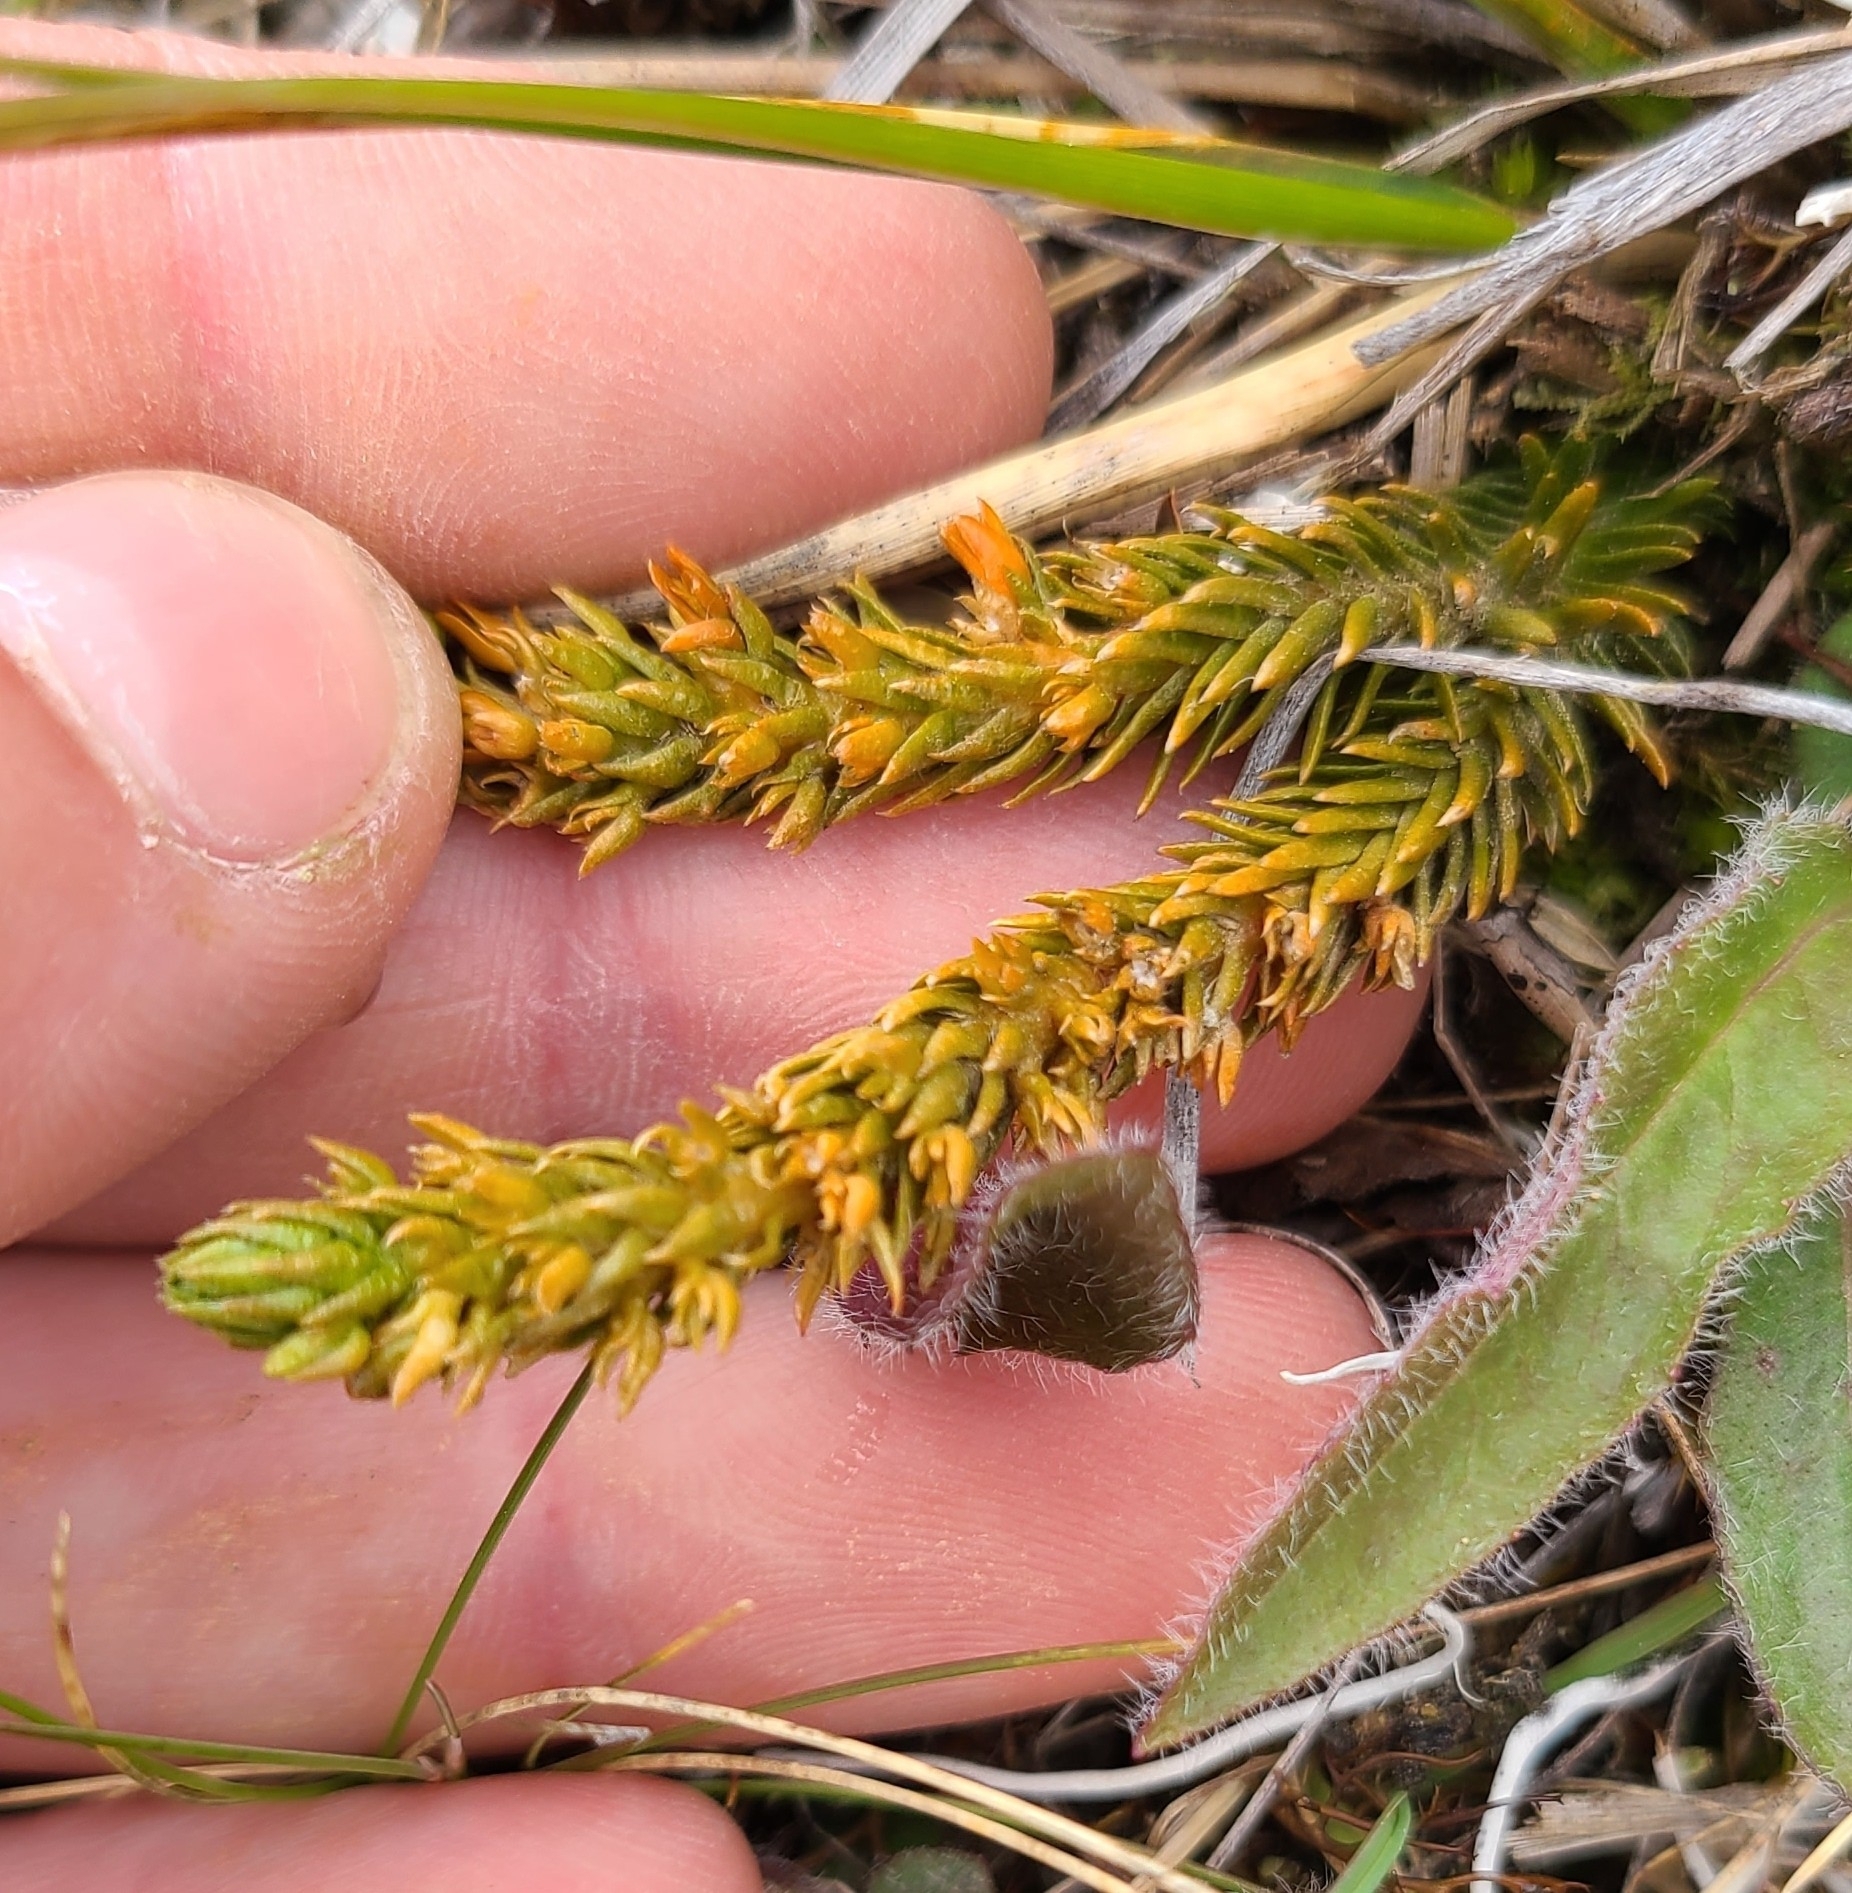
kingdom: Plantae
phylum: Tracheophyta
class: Lycopodiopsida
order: Lycopodiales
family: Lycopodiaceae
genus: Huperzia
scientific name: Huperzia australiana
